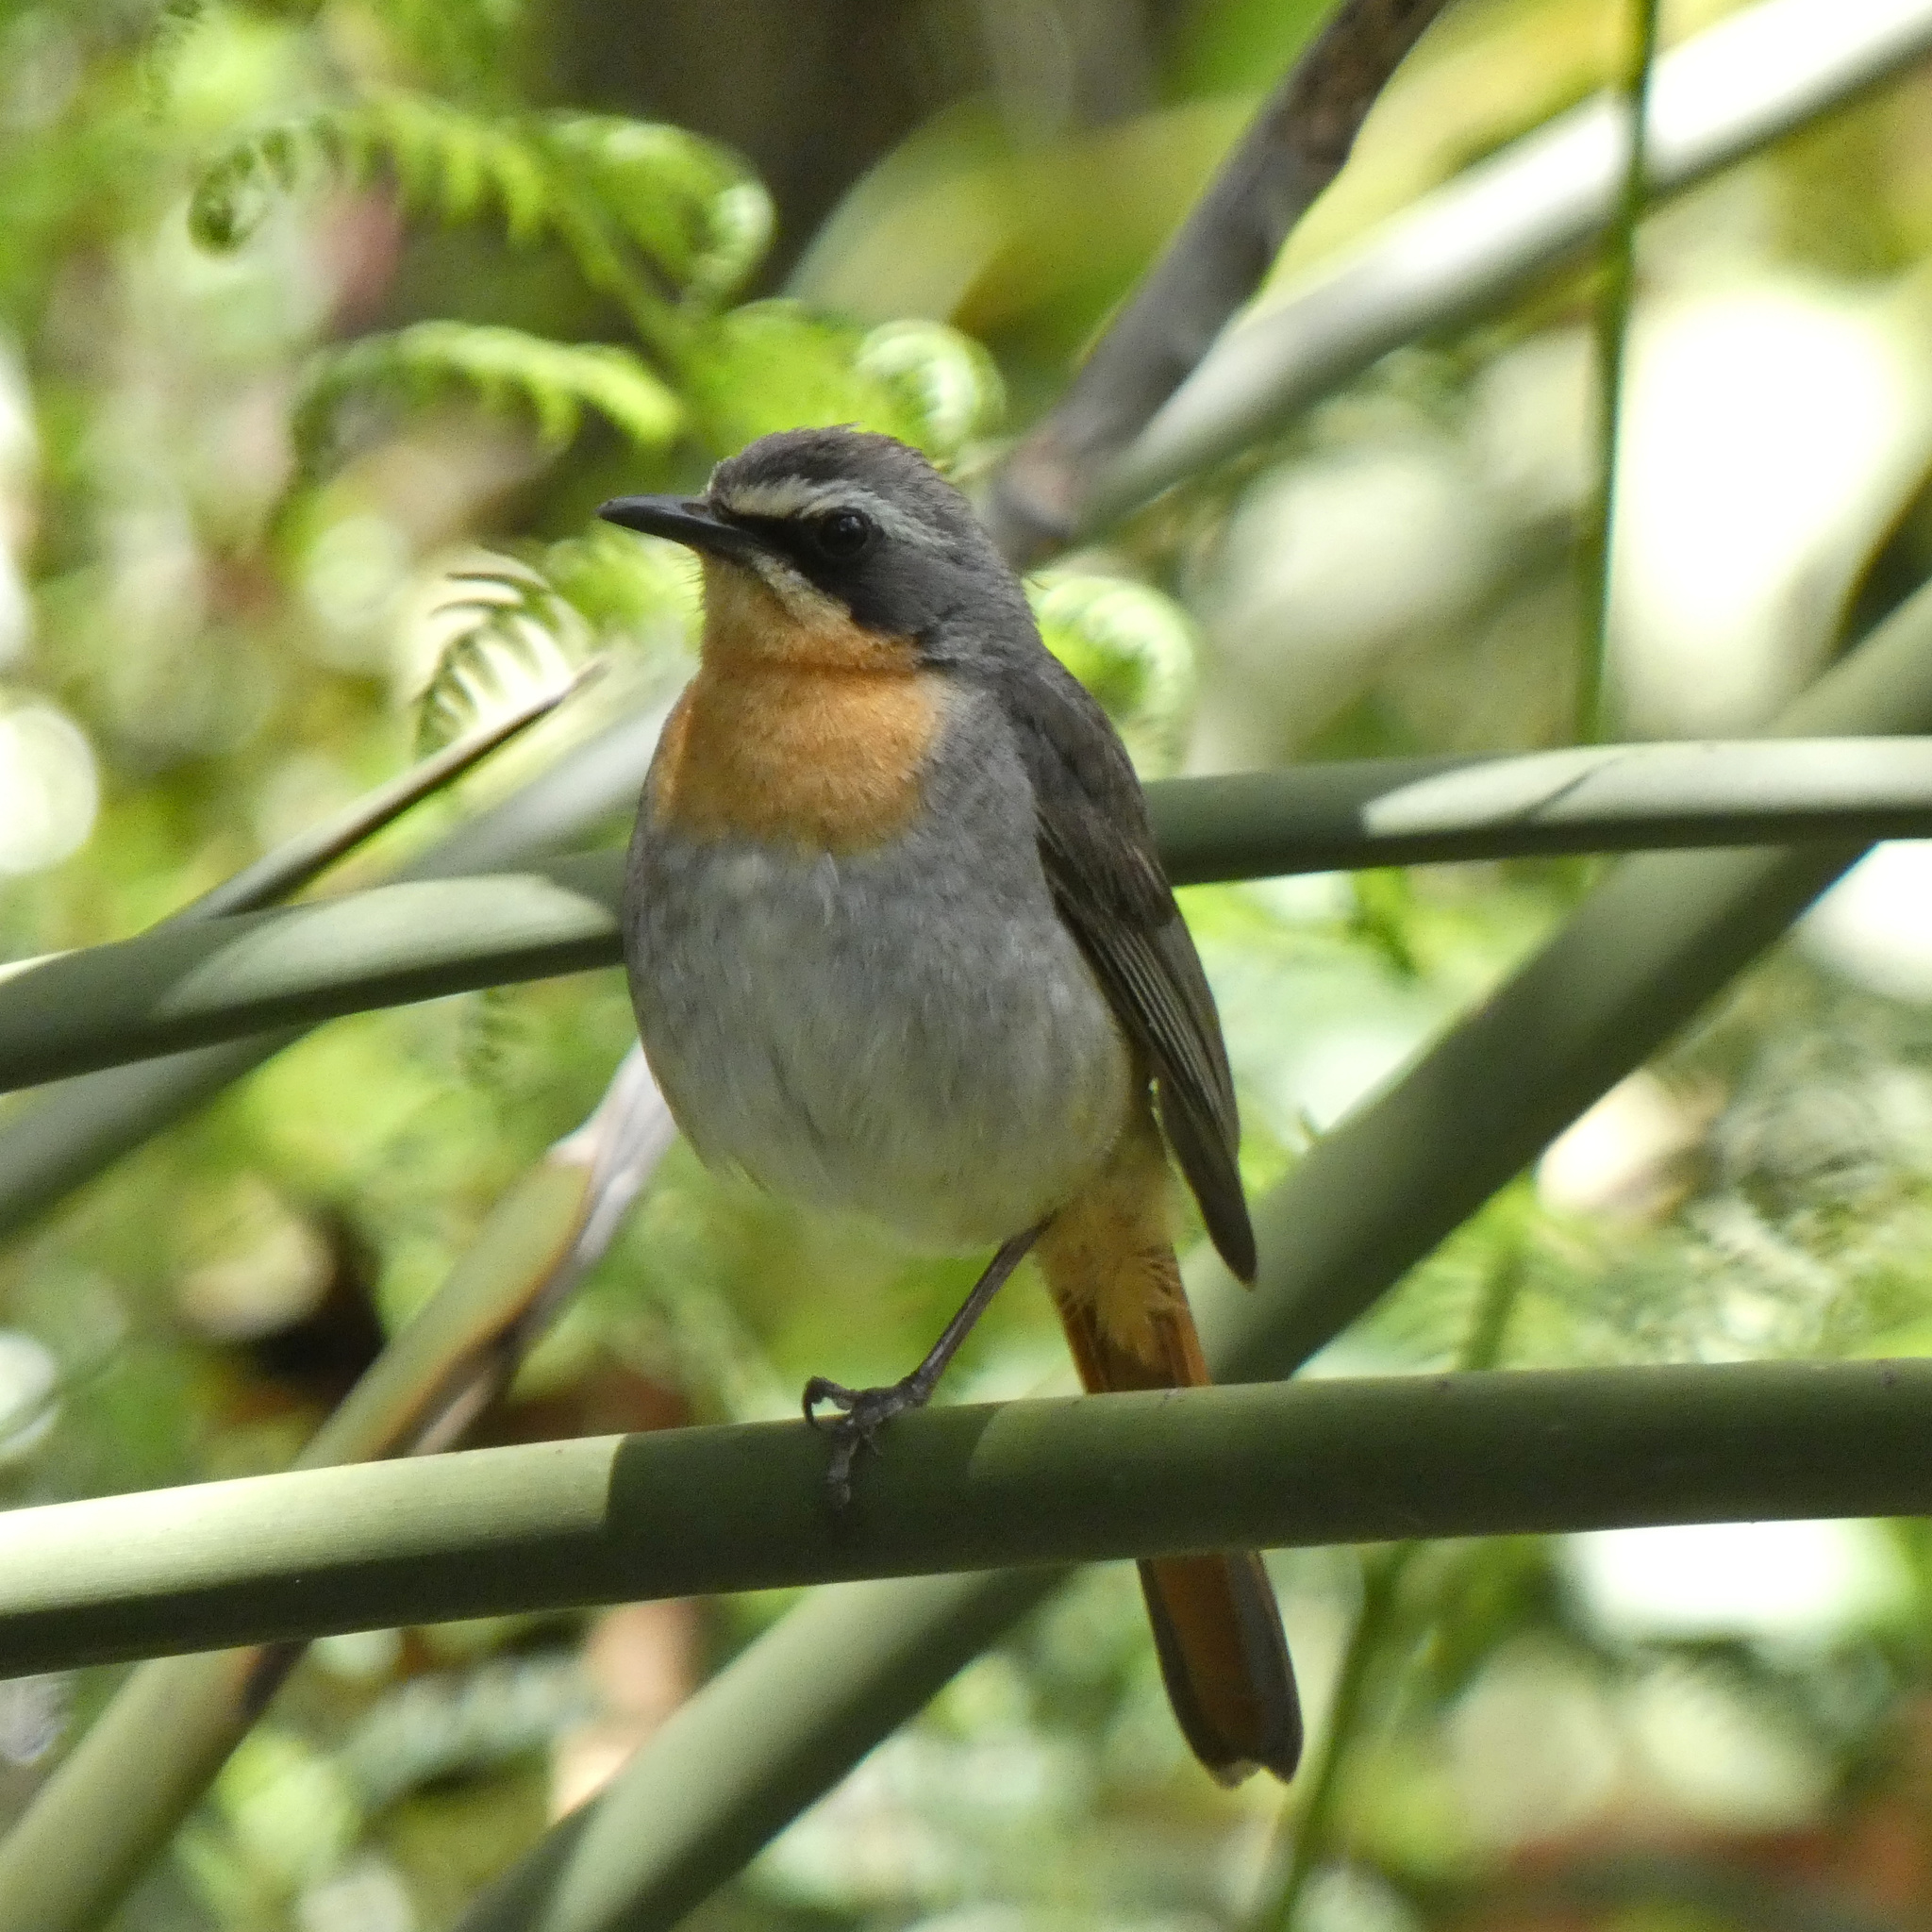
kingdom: Animalia
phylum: Chordata
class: Aves
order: Passeriformes
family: Muscicapidae
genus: Cossypha
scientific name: Cossypha caffra
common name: Cape robin-chat
